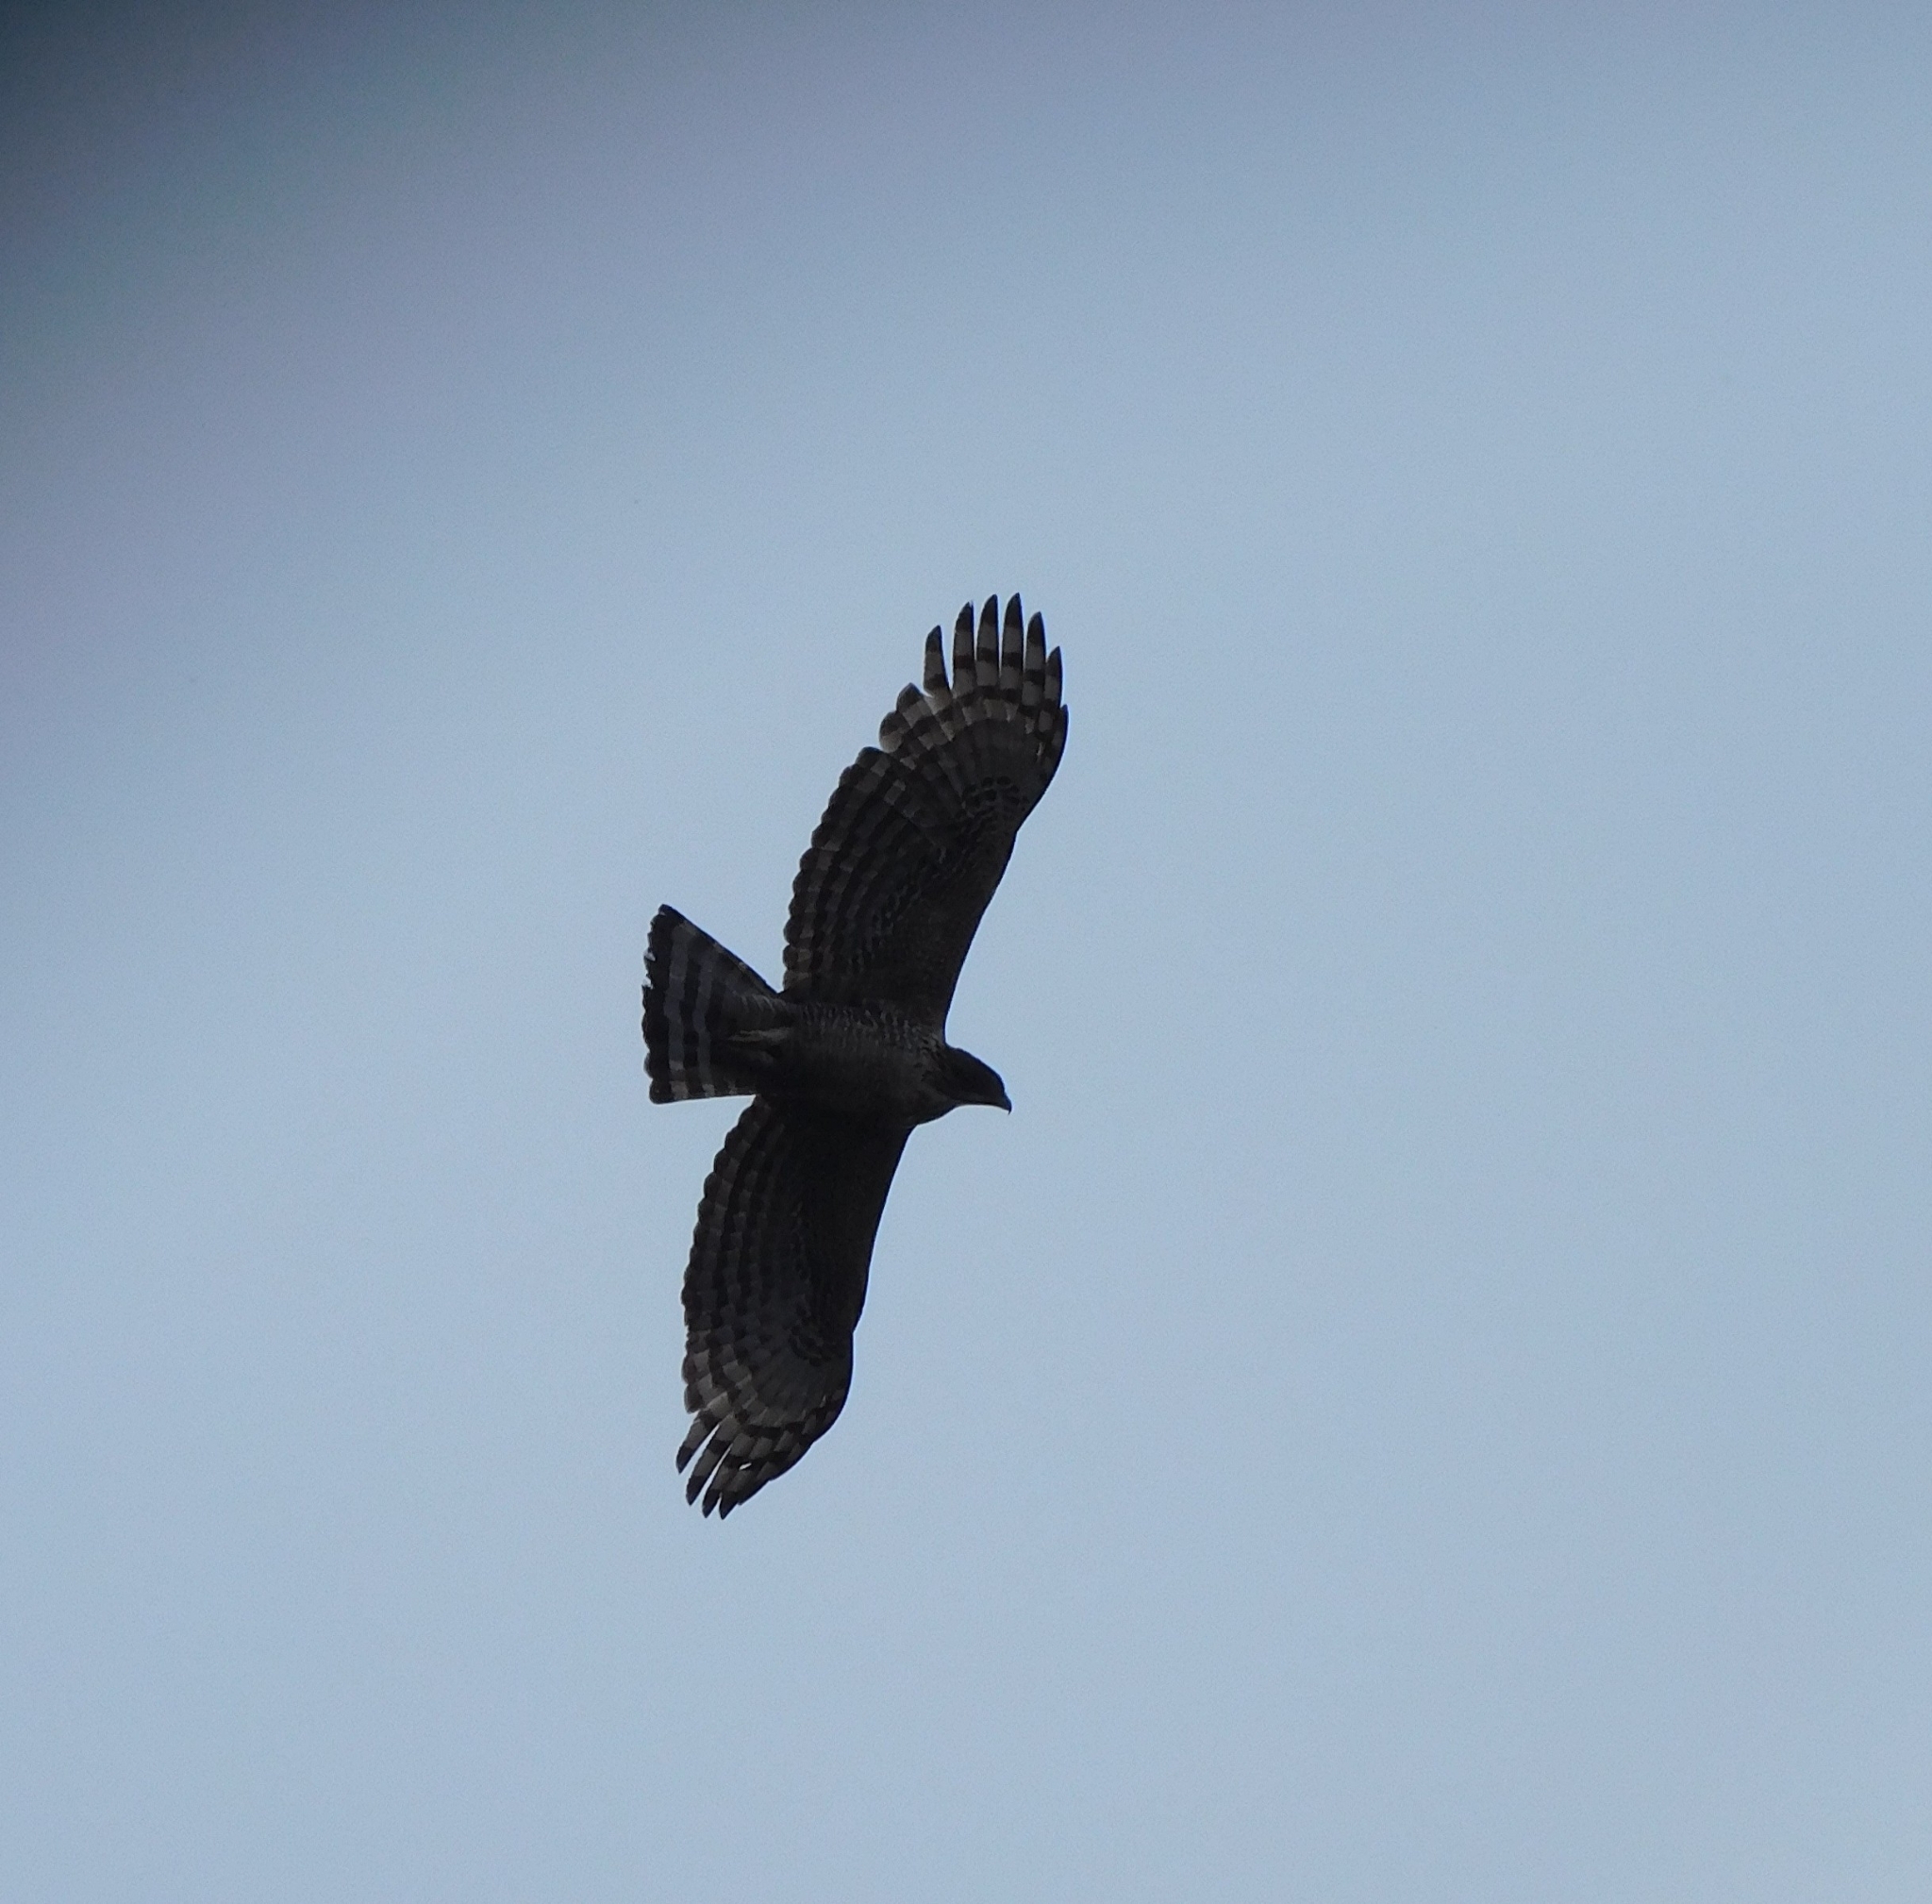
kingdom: Animalia
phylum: Chordata
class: Aves
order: Accipitriformes
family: Accipitridae
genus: Nisaetus
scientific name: Nisaetus nipalensis
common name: Mountain hawk-eagle
